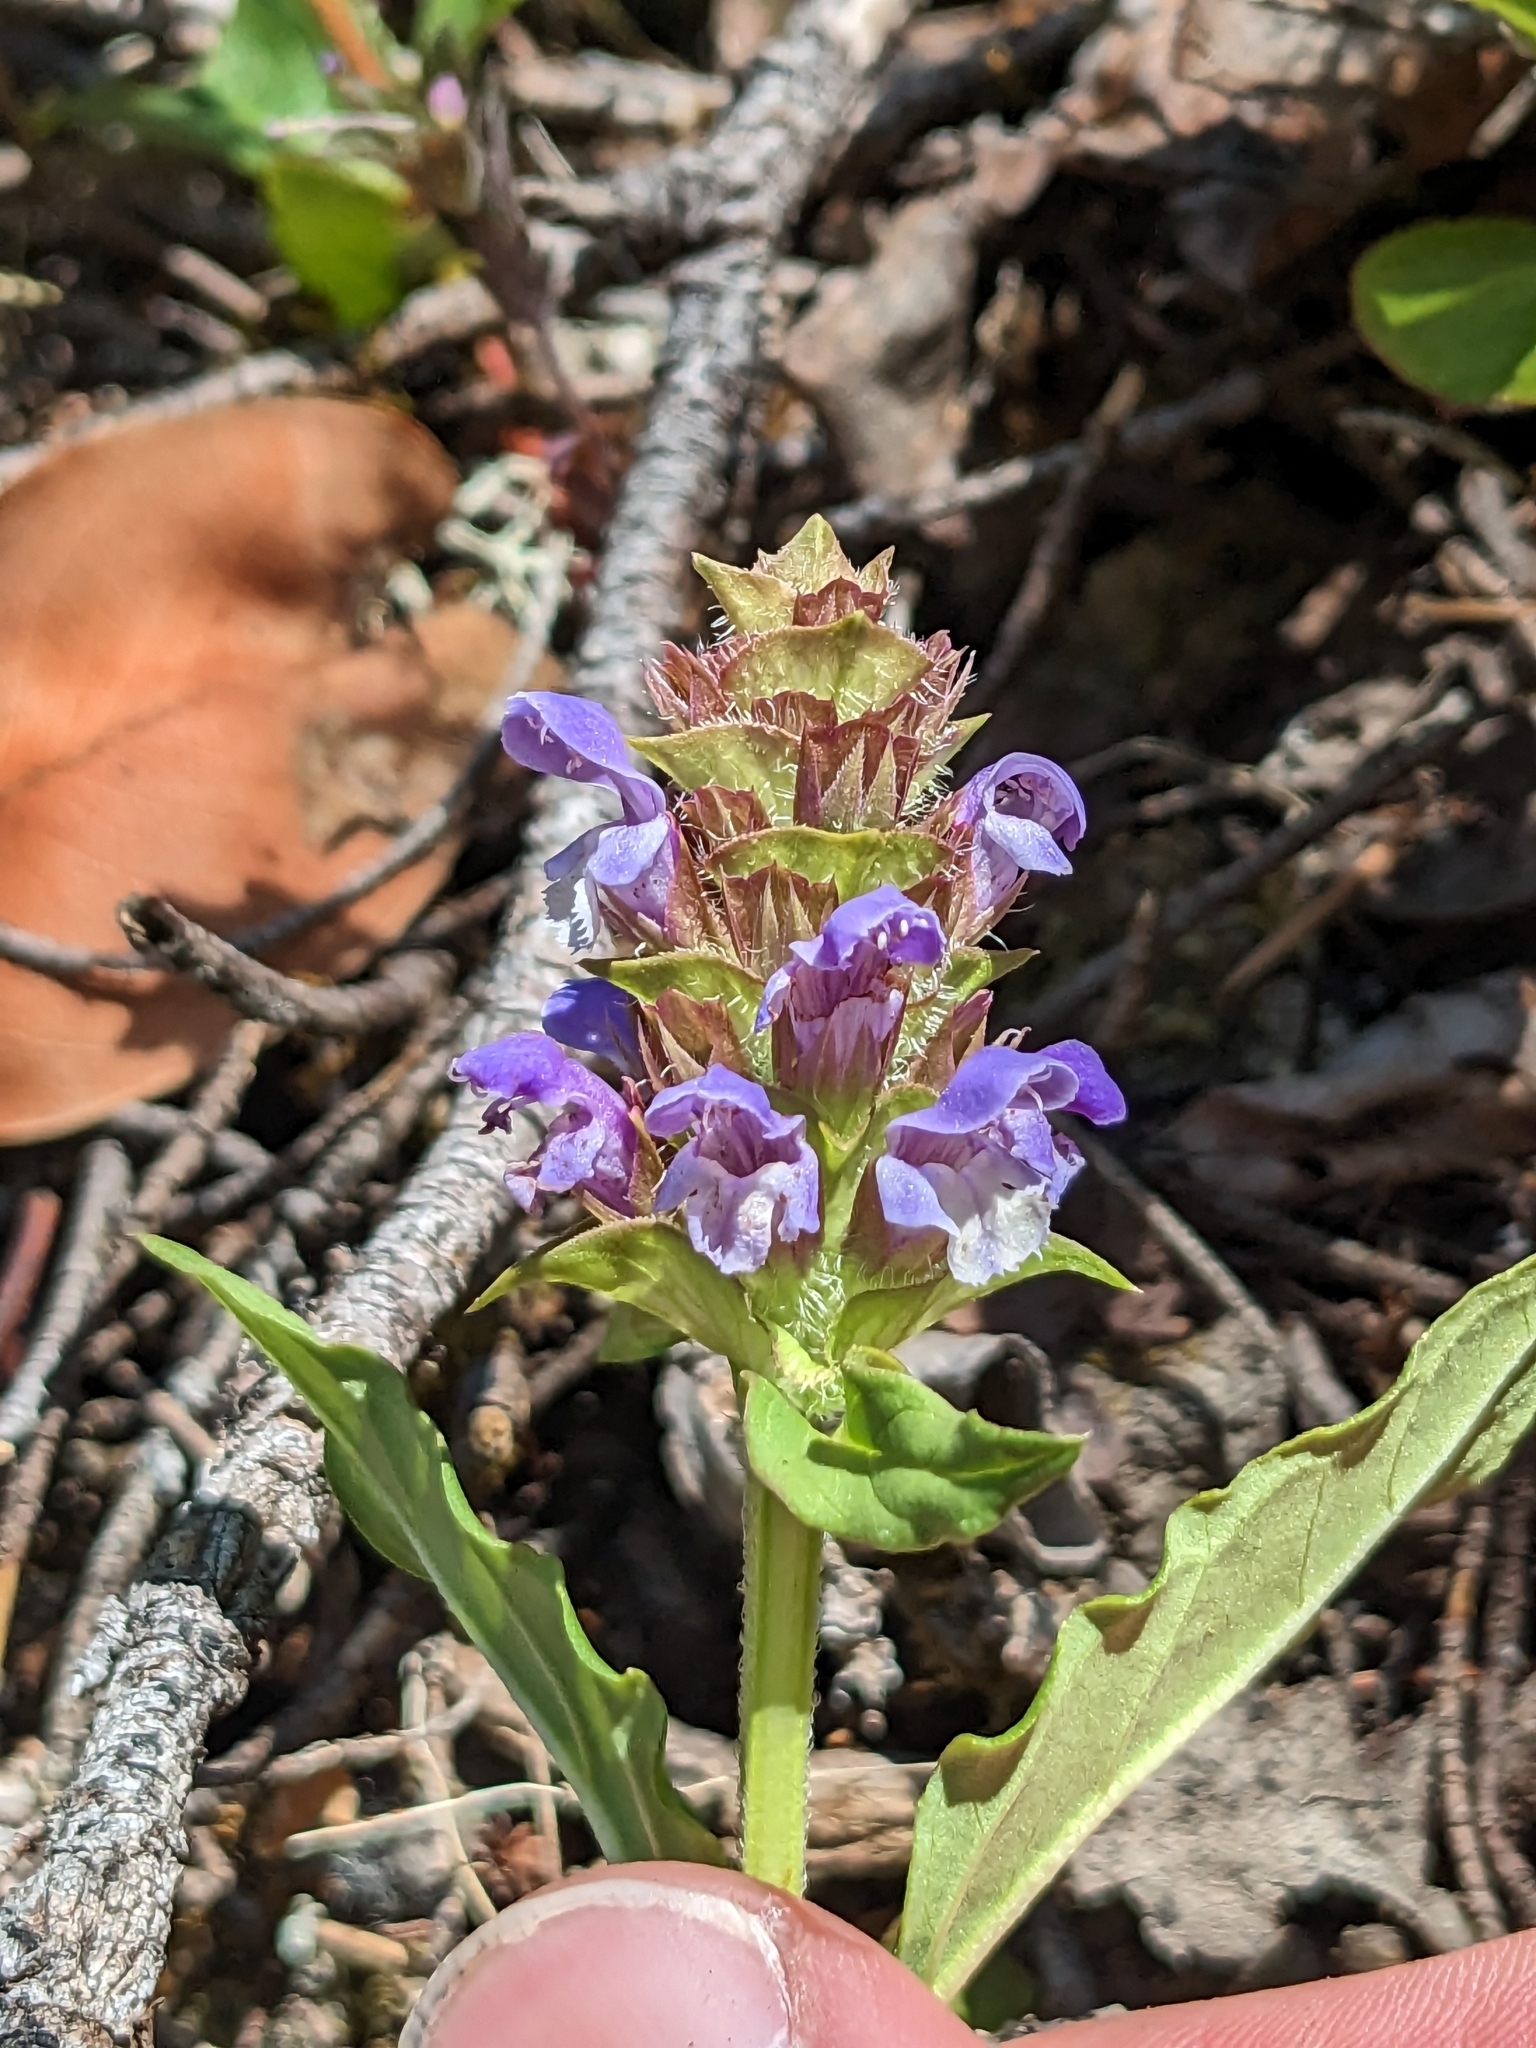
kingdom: Plantae
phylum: Tracheophyta
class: Magnoliopsida
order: Lamiales
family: Lamiaceae
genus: Prunella
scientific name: Prunella vulgaris
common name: Heal-all
